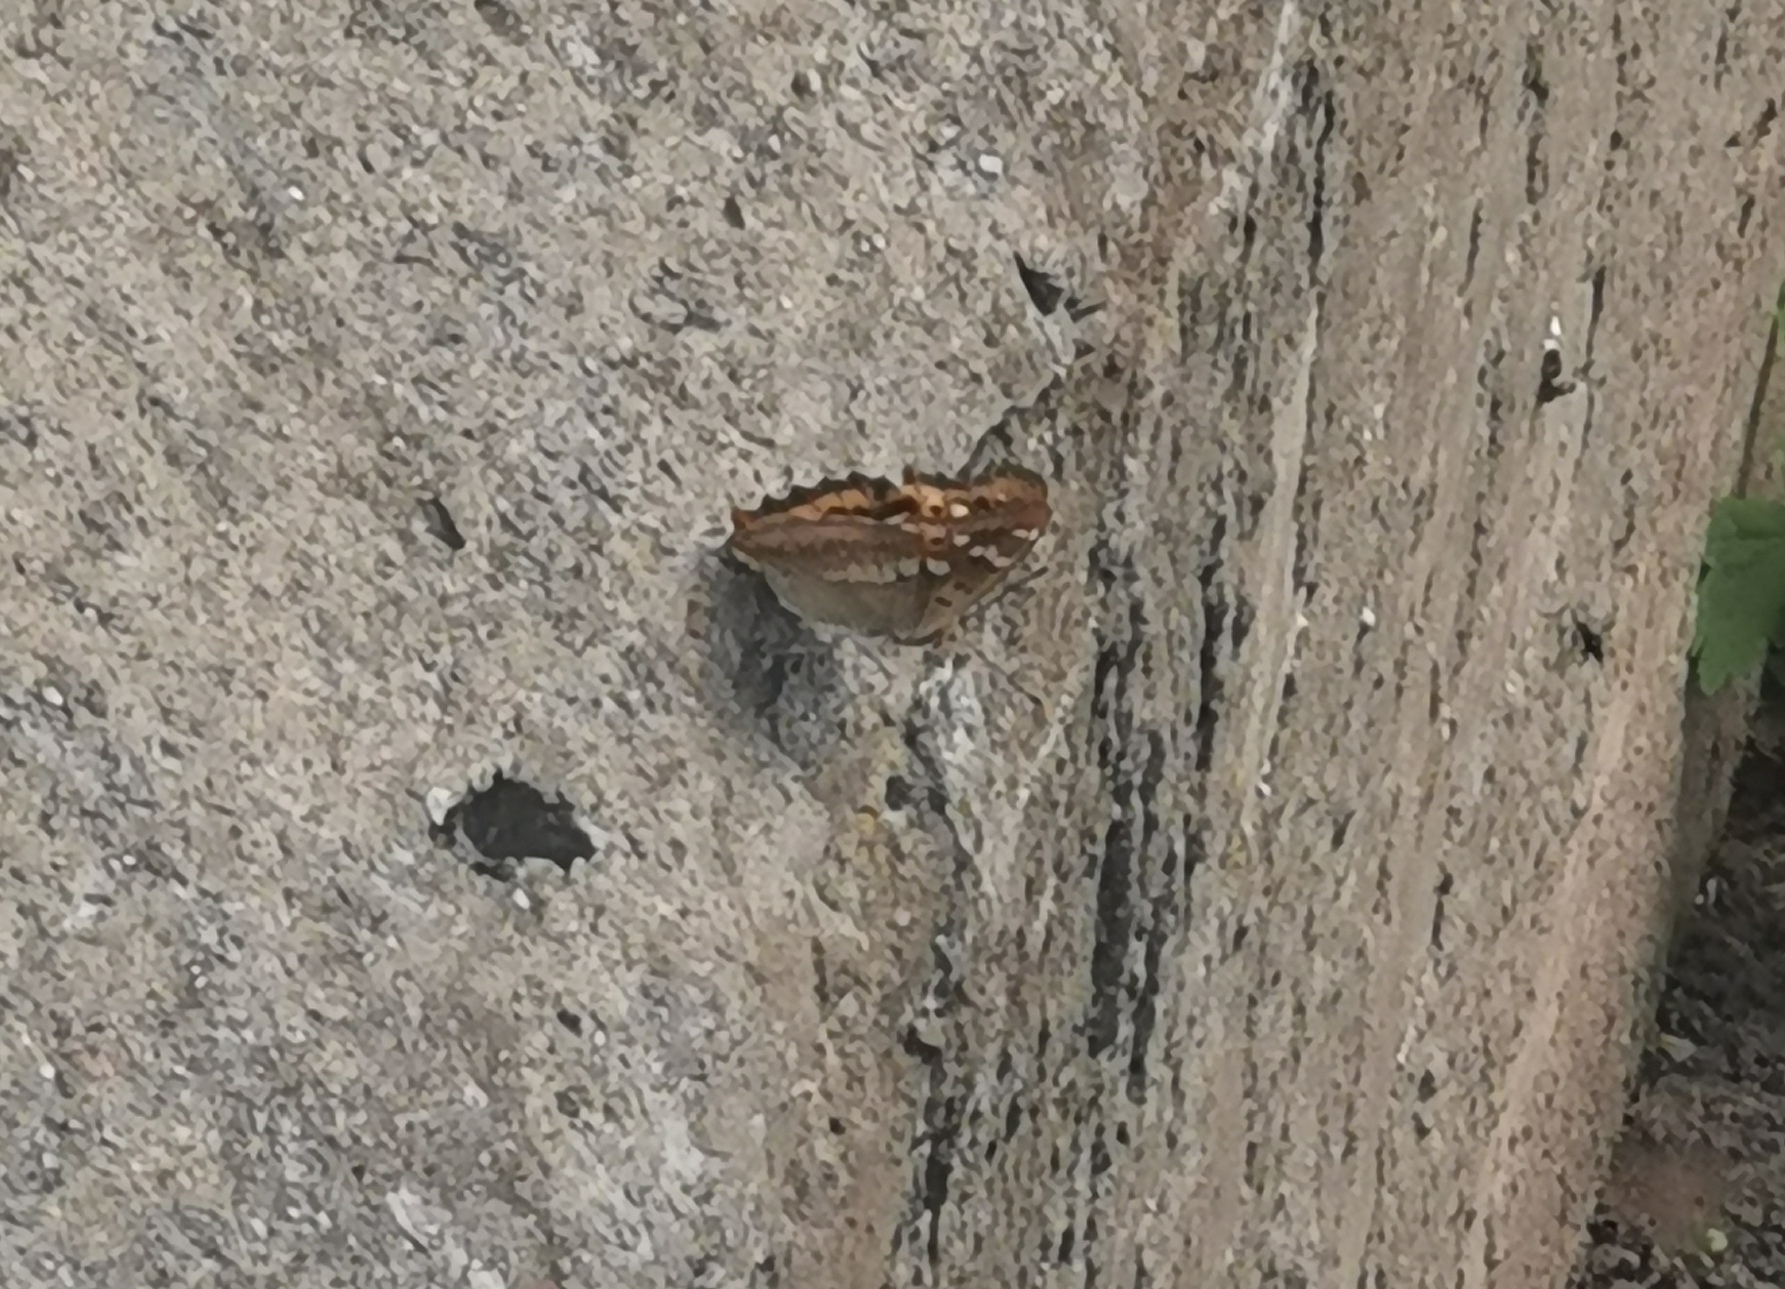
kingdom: Animalia
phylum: Arthropoda
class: Insecta
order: Lepidoptera
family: Nymphalidae
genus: Apatura
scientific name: Apatura ilia
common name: Lesser purple emperor
